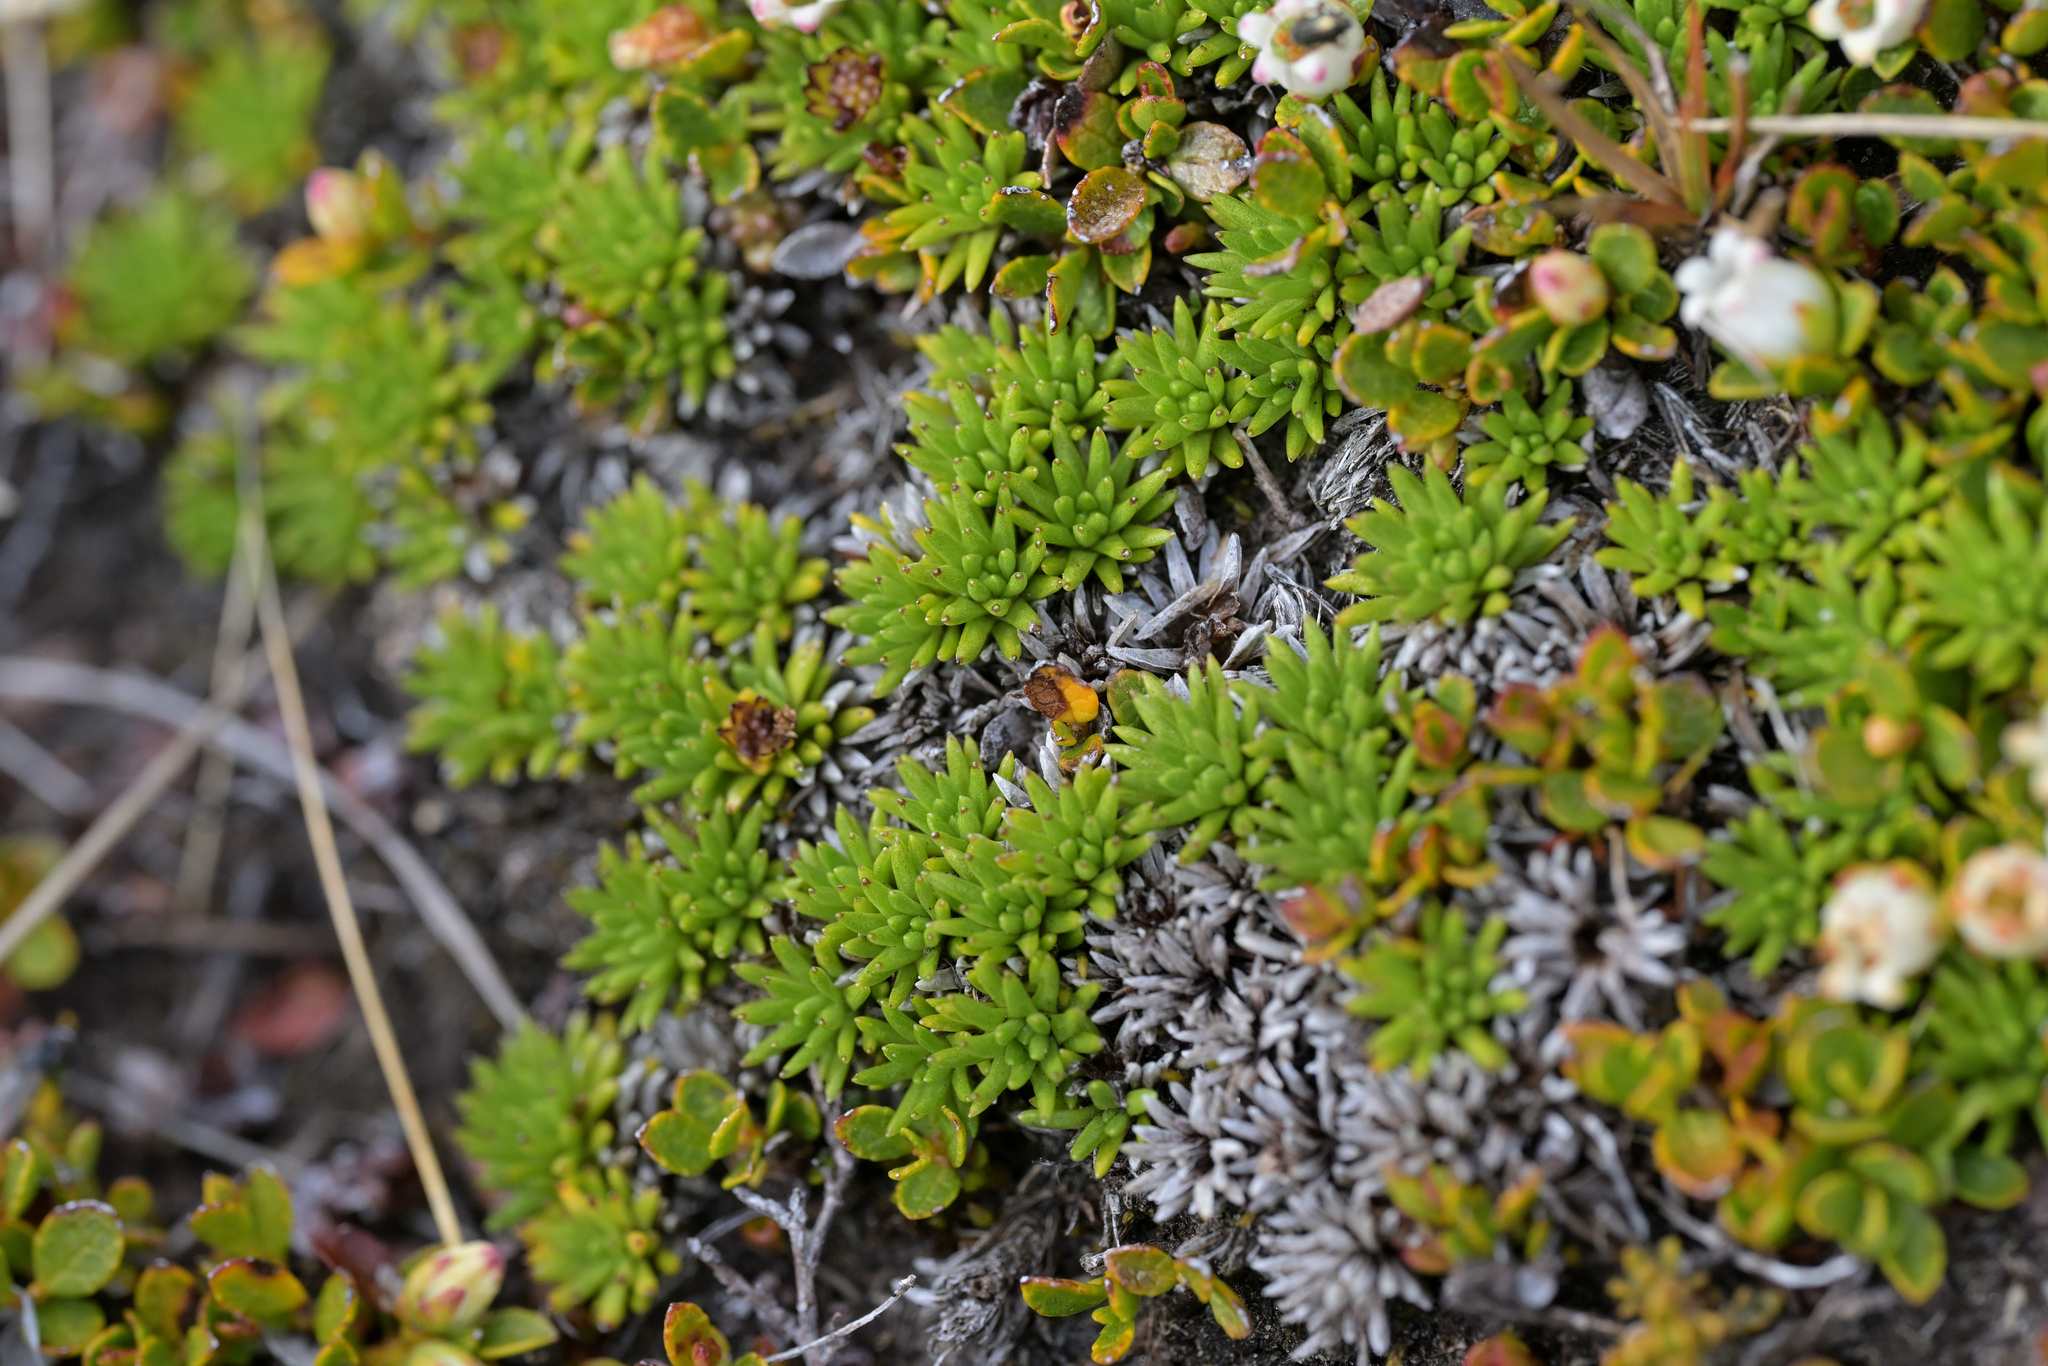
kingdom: Plantae
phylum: Tracheophyta
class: Magnoliopsida
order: Asterales
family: Asteraceae
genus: Abrotanella
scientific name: Abrotanella inconspicua
